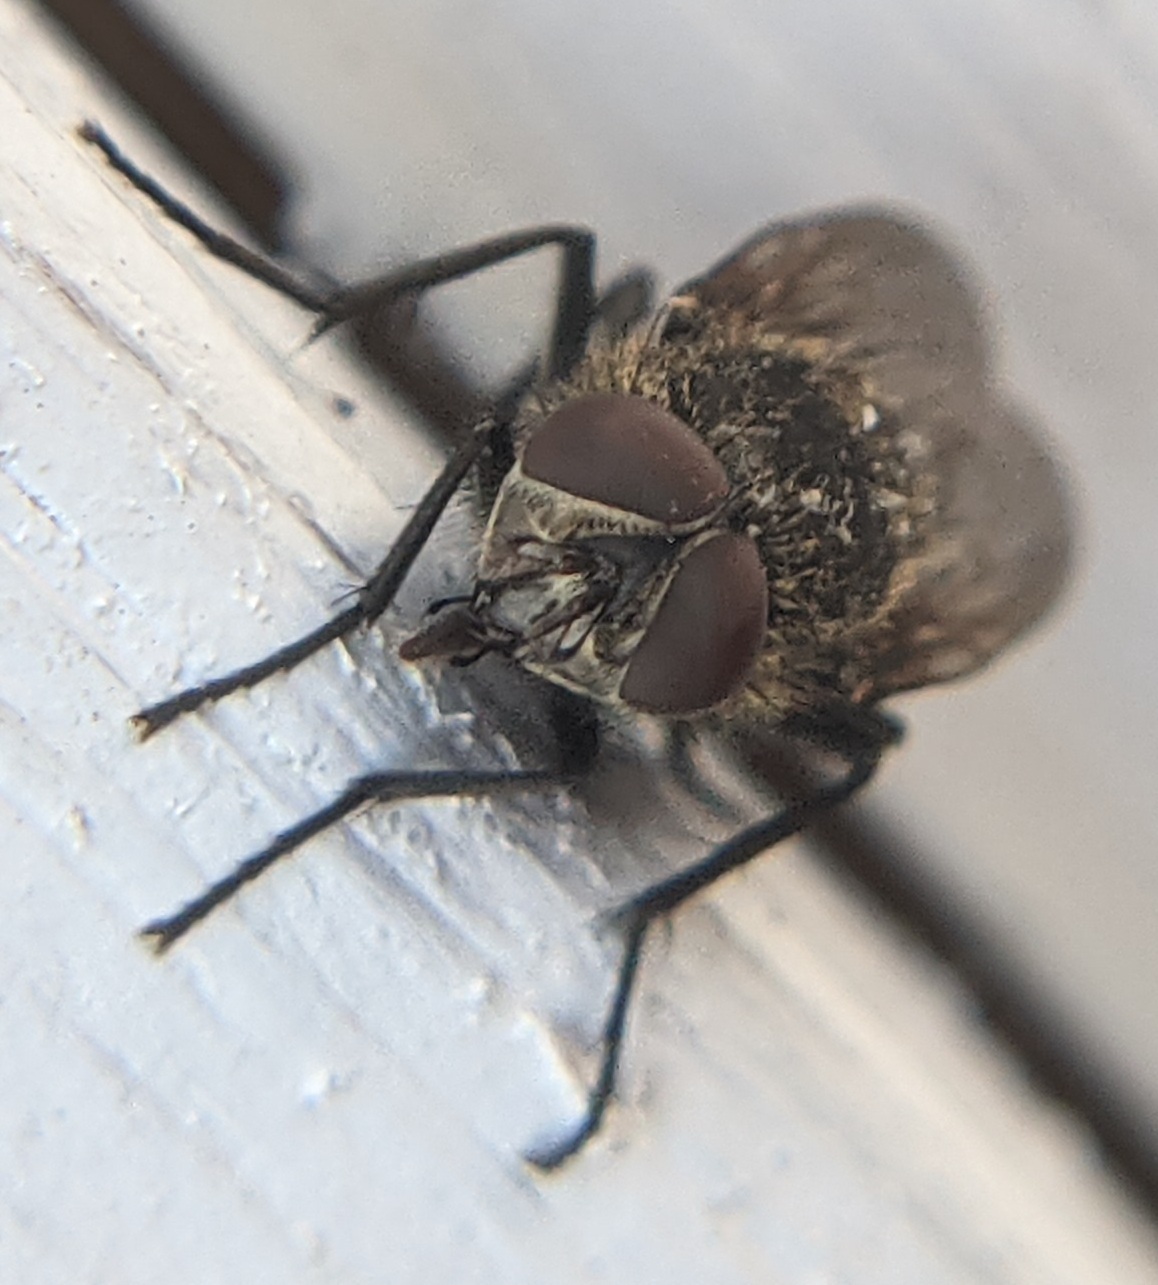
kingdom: Animalia
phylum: Arthropoda
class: Insecta
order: Diptera
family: Polleniidae
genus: Pollenia
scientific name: Pollenia
